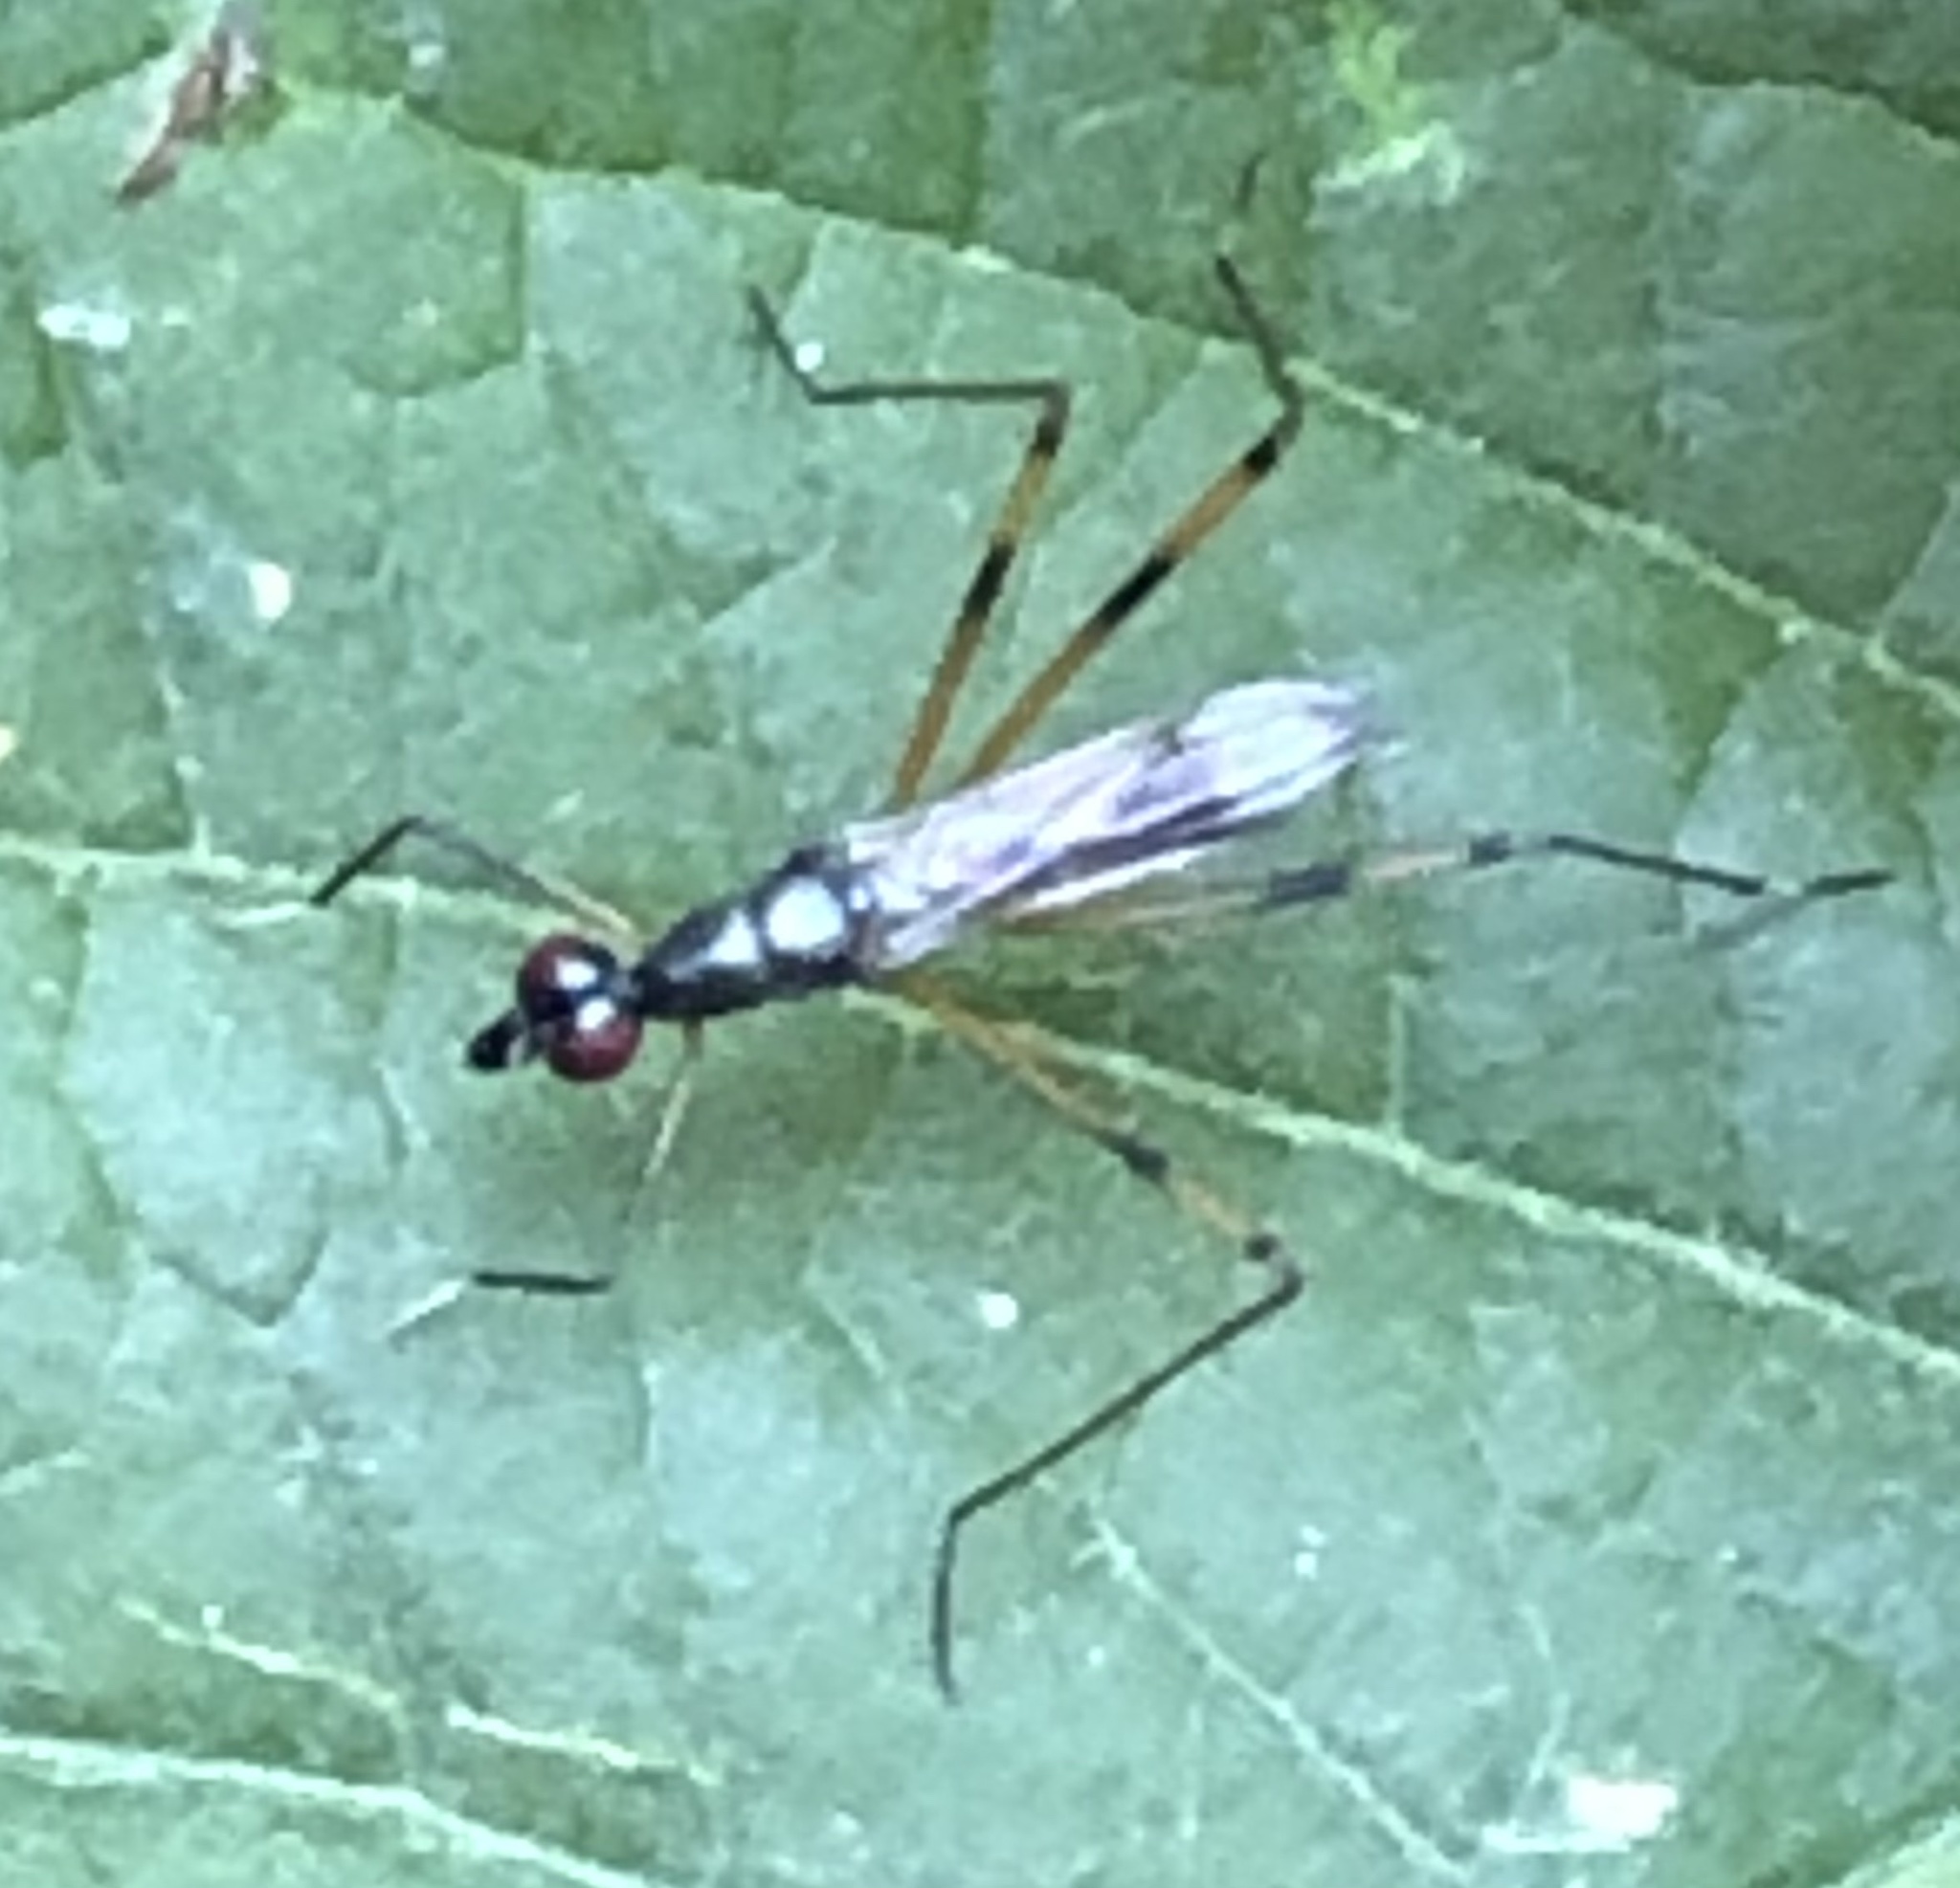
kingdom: Animalia
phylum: Arthropoda
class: Insecta
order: Diptera
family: Micropezidae
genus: Rainieria
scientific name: Rainieria antennaepes
